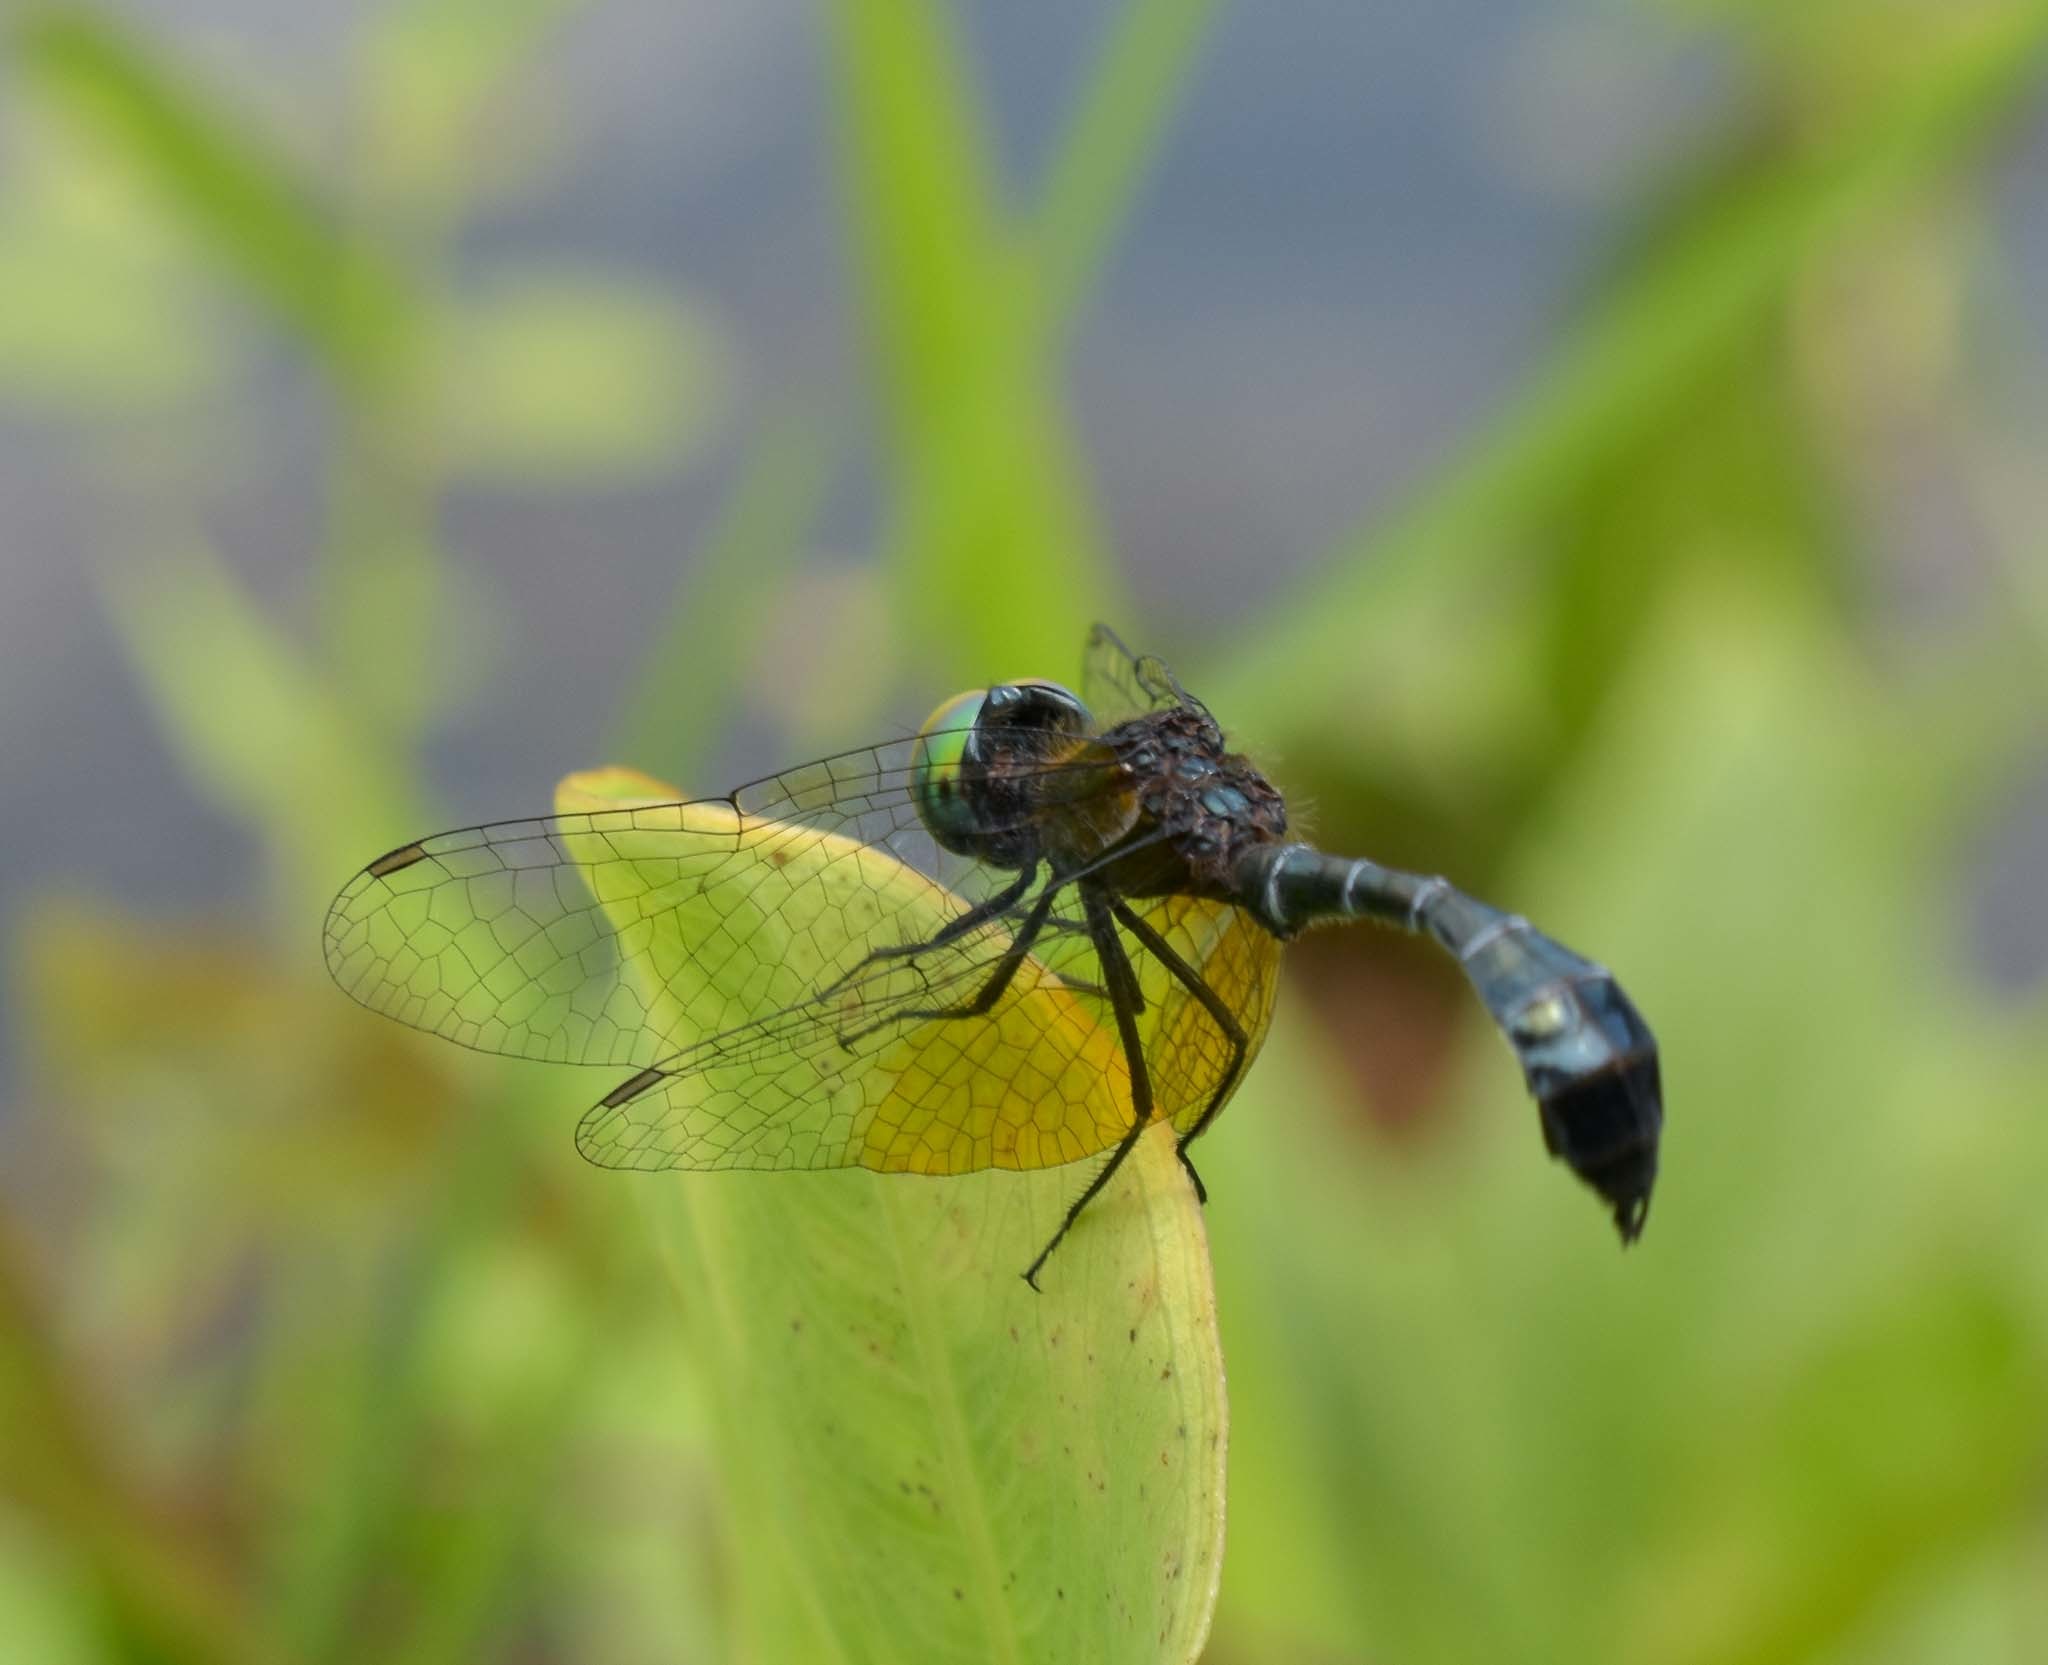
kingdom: Animalia
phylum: Arthropoda
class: Insecta
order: Odonata
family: Libellulidae
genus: Nannophyopsis
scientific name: Nannophyopsis clara
